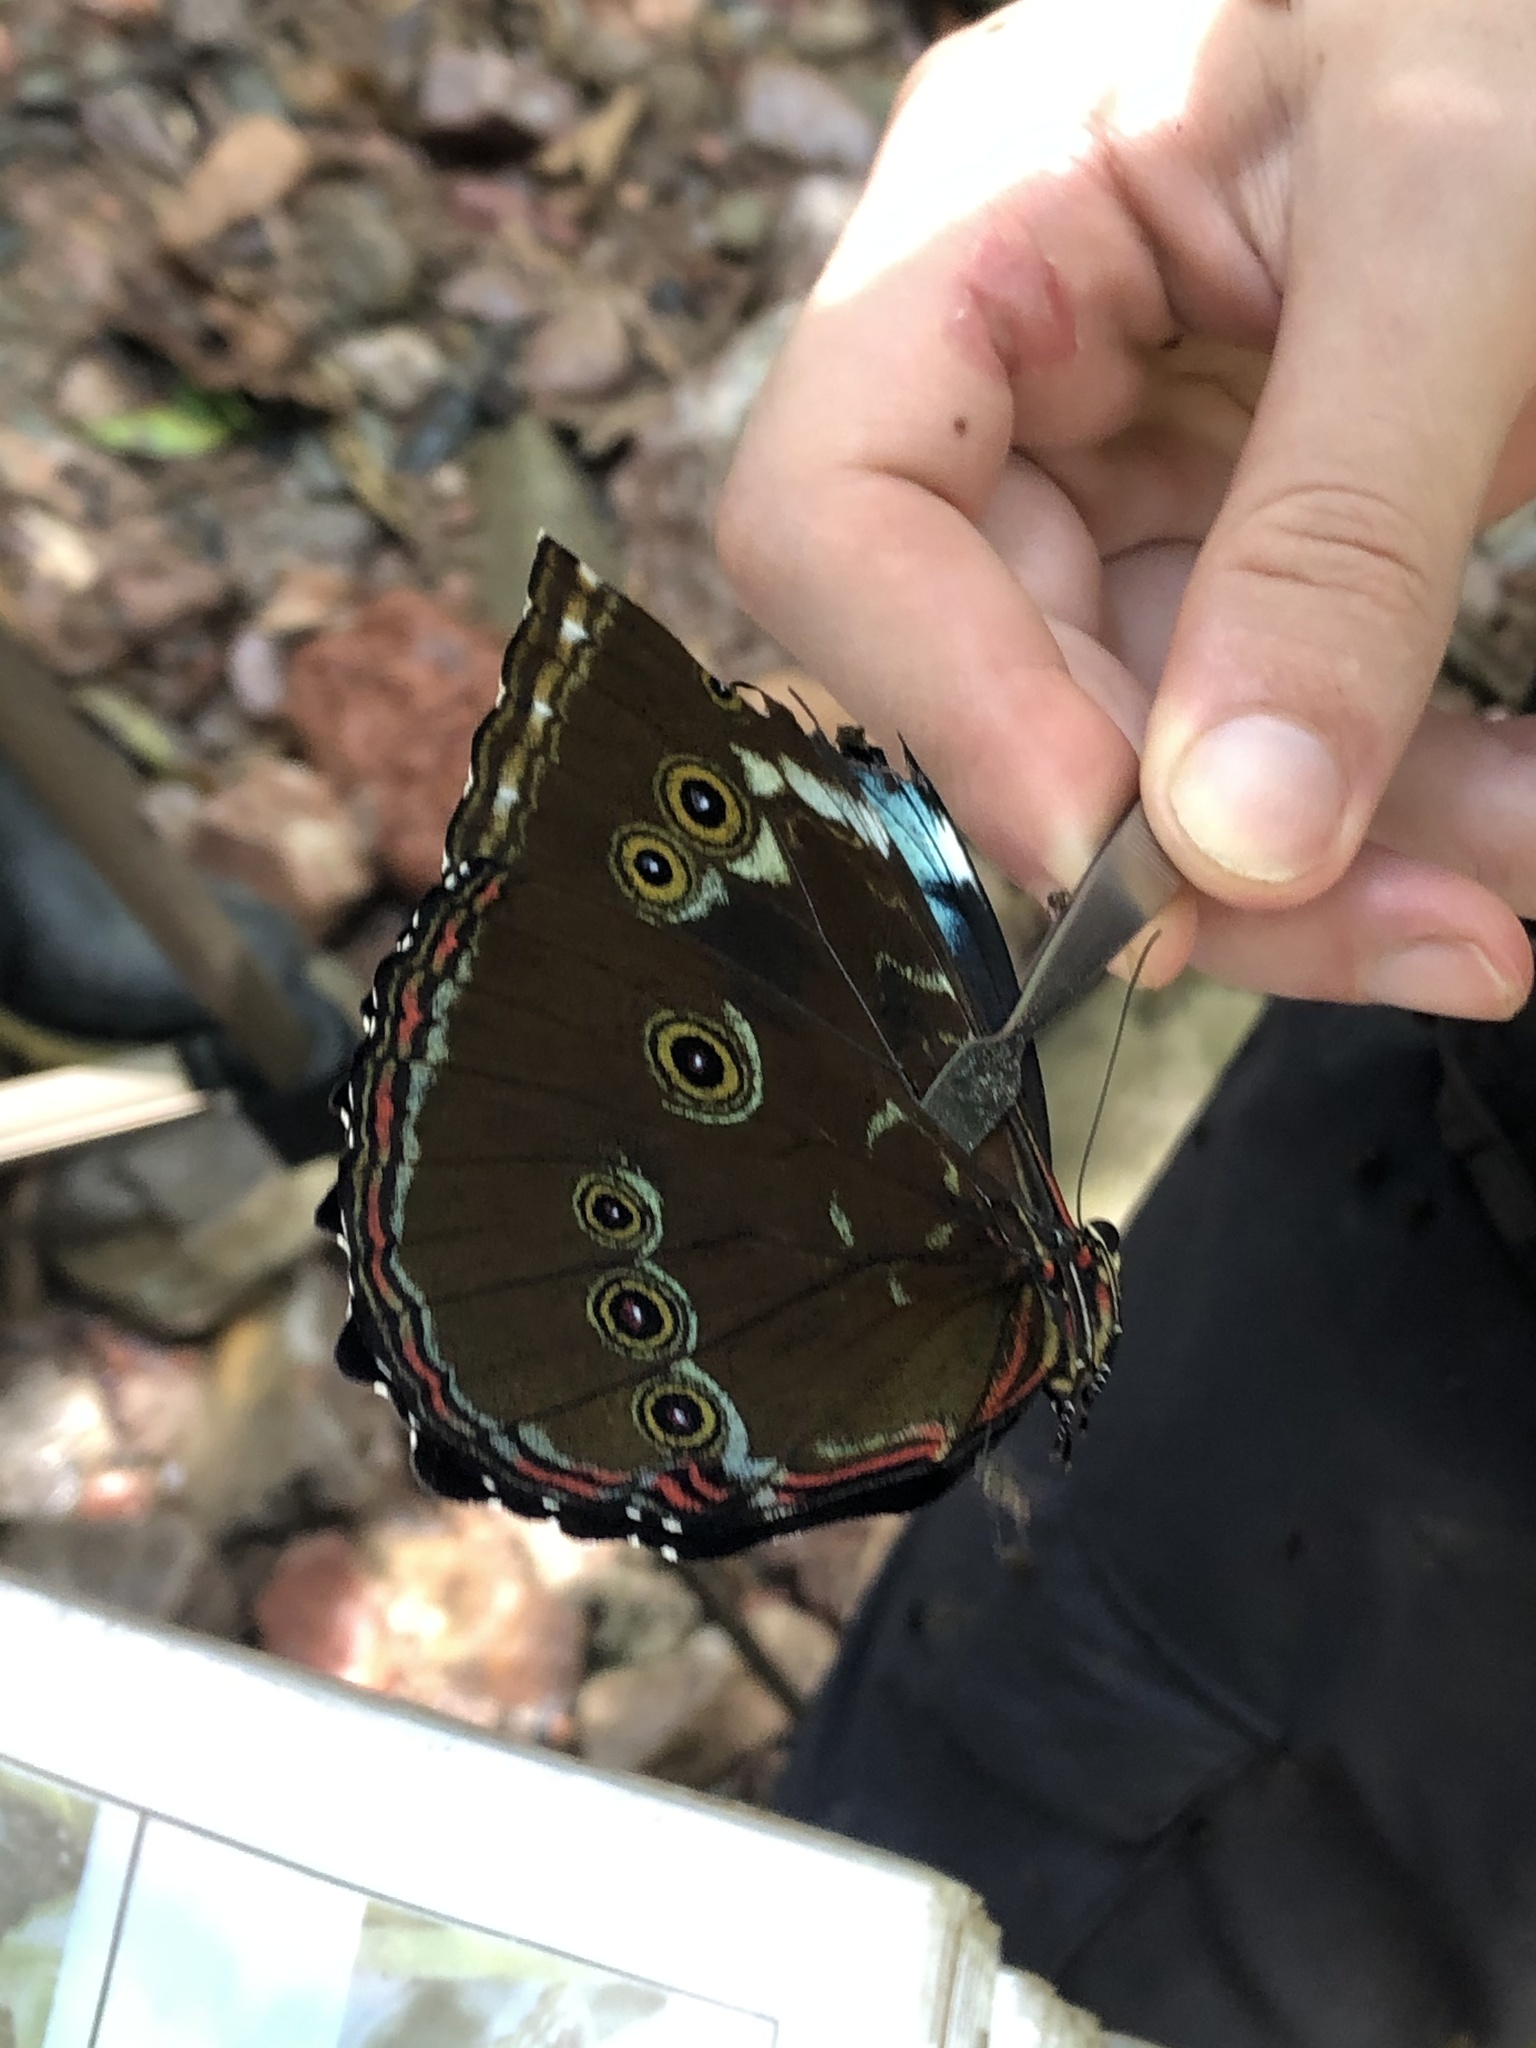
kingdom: Animalia
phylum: Arthropoda
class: Insecta
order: Lepidoptera
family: Nymphalidae
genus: Morpho
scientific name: Morpho achilles
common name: Achilles morpho
